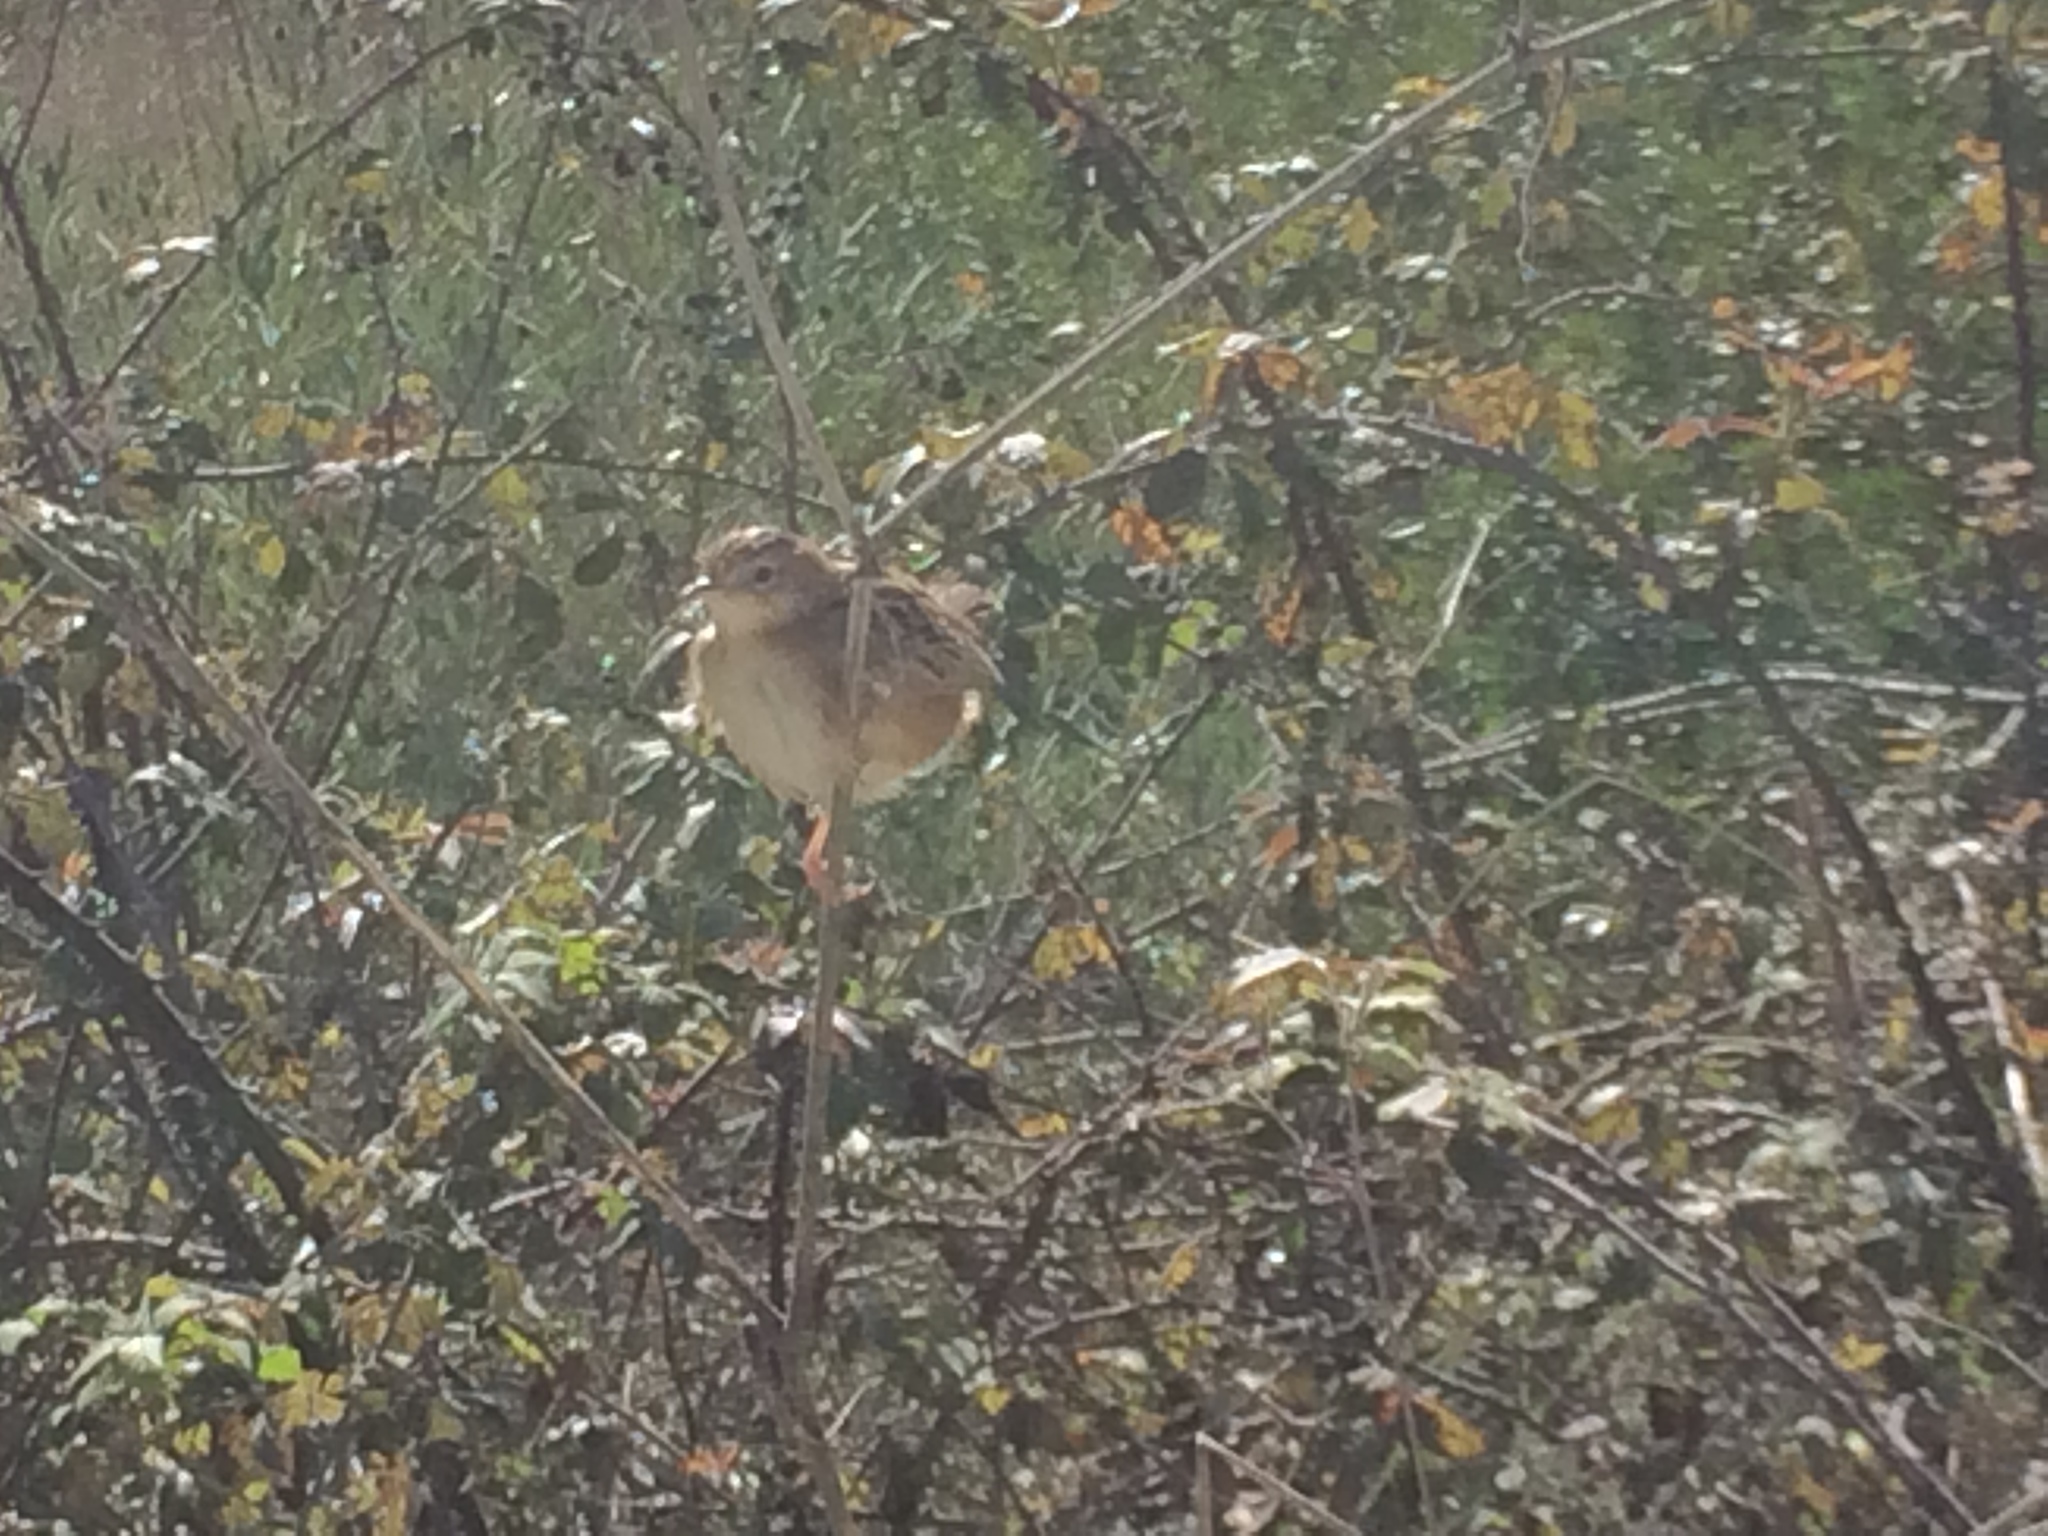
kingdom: Animalia
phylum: Chordata
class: Aves
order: Passeriformes
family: Cisticolidae
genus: Cisticola
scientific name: Cisticola juncidis
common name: Zitting cisticola
